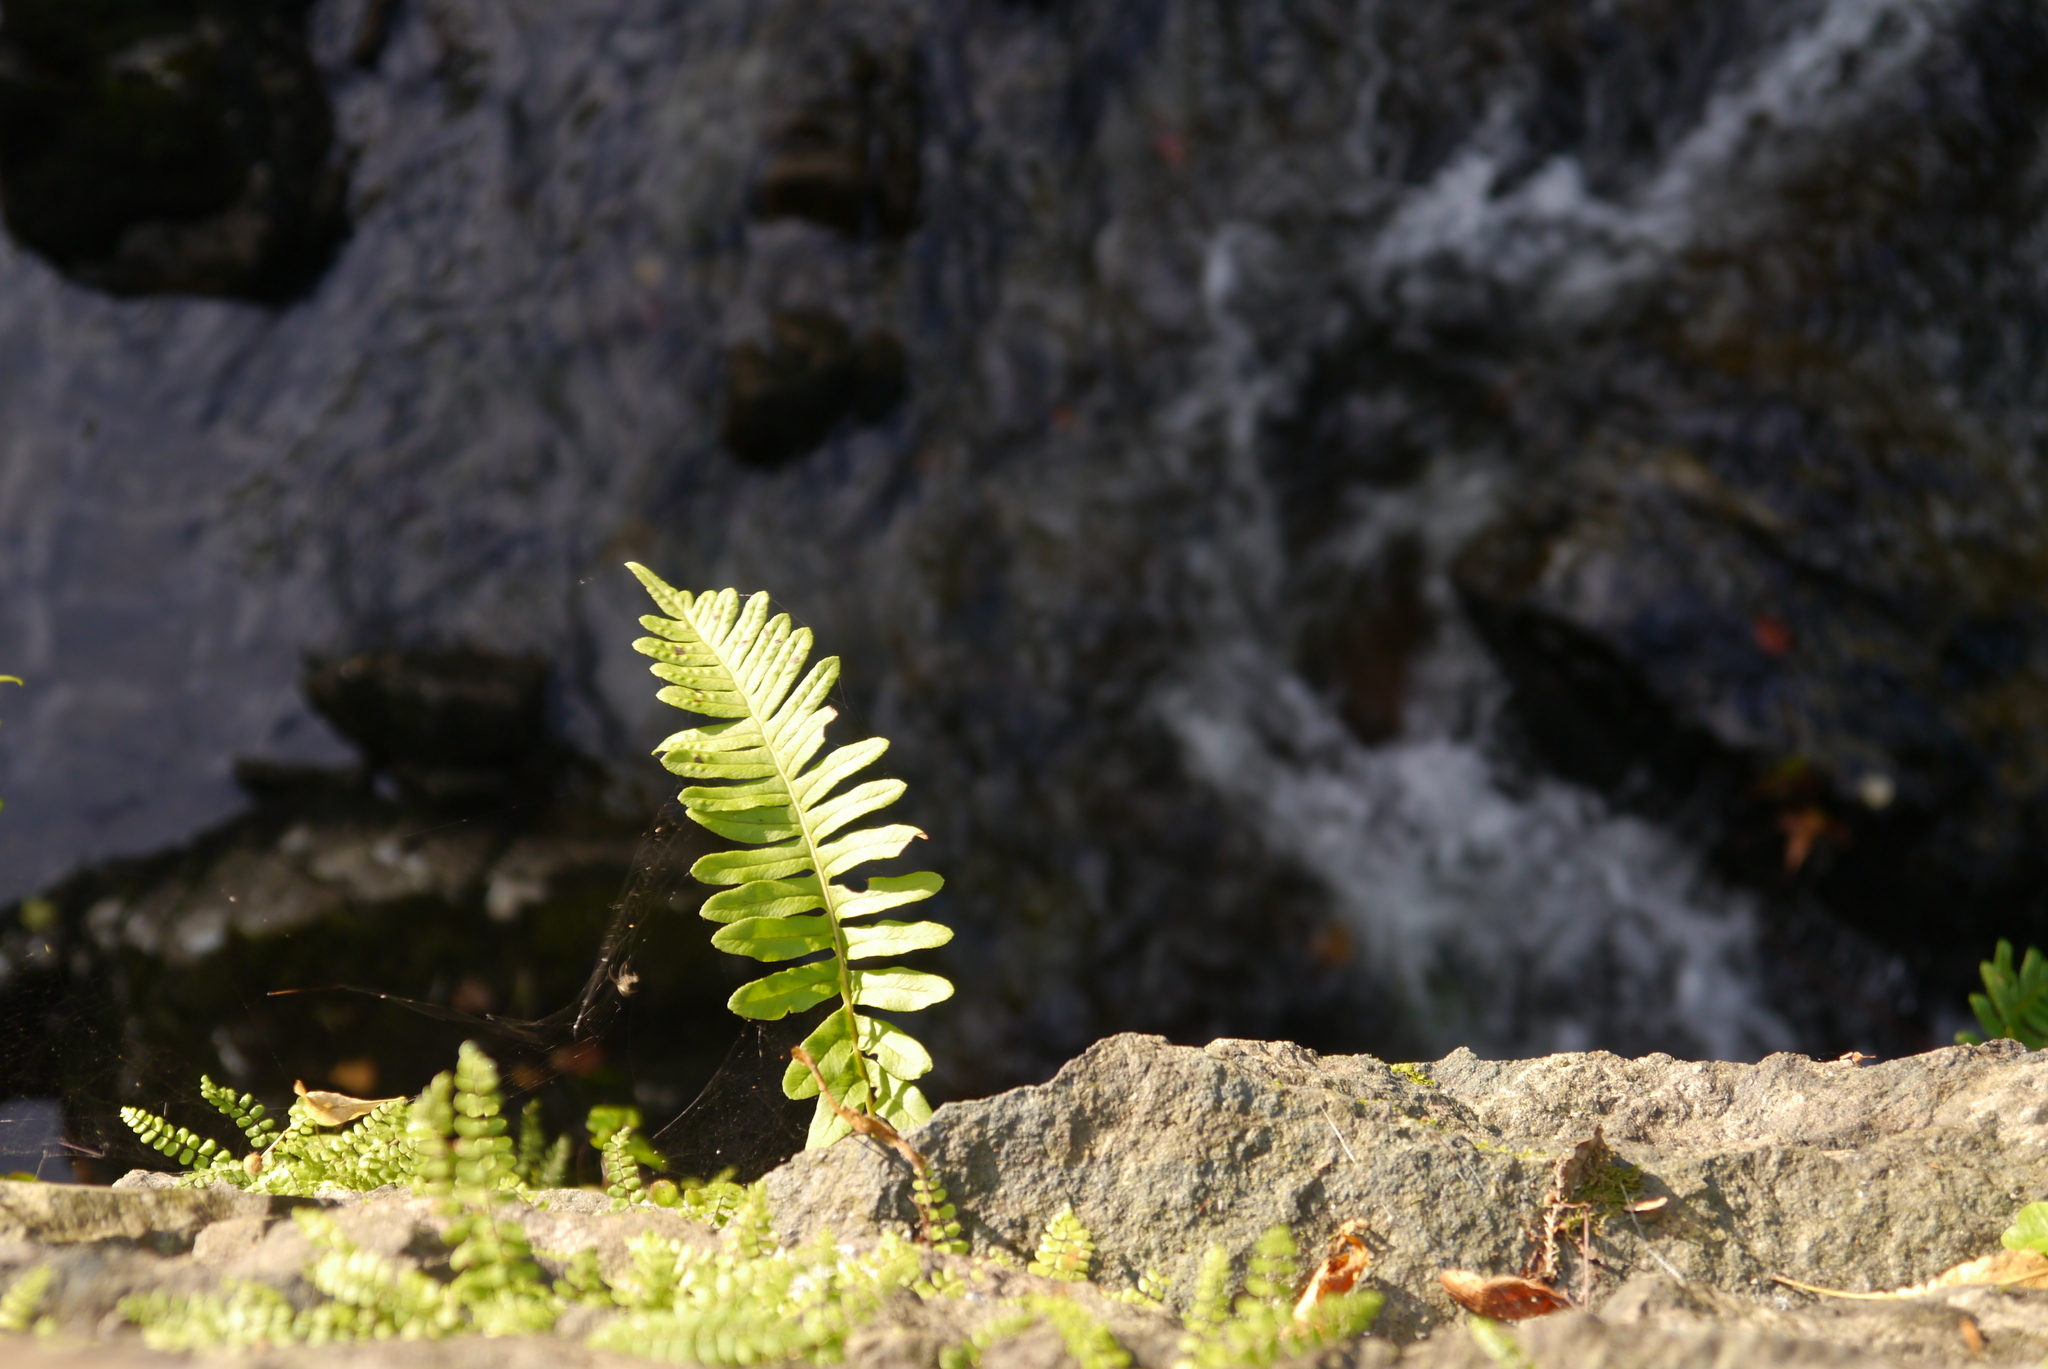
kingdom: Plantae
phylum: Tracheophyta
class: Polypodiopsida
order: Polypodiales
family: Polypodiaceae
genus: Polypodium
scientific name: Polypodium
